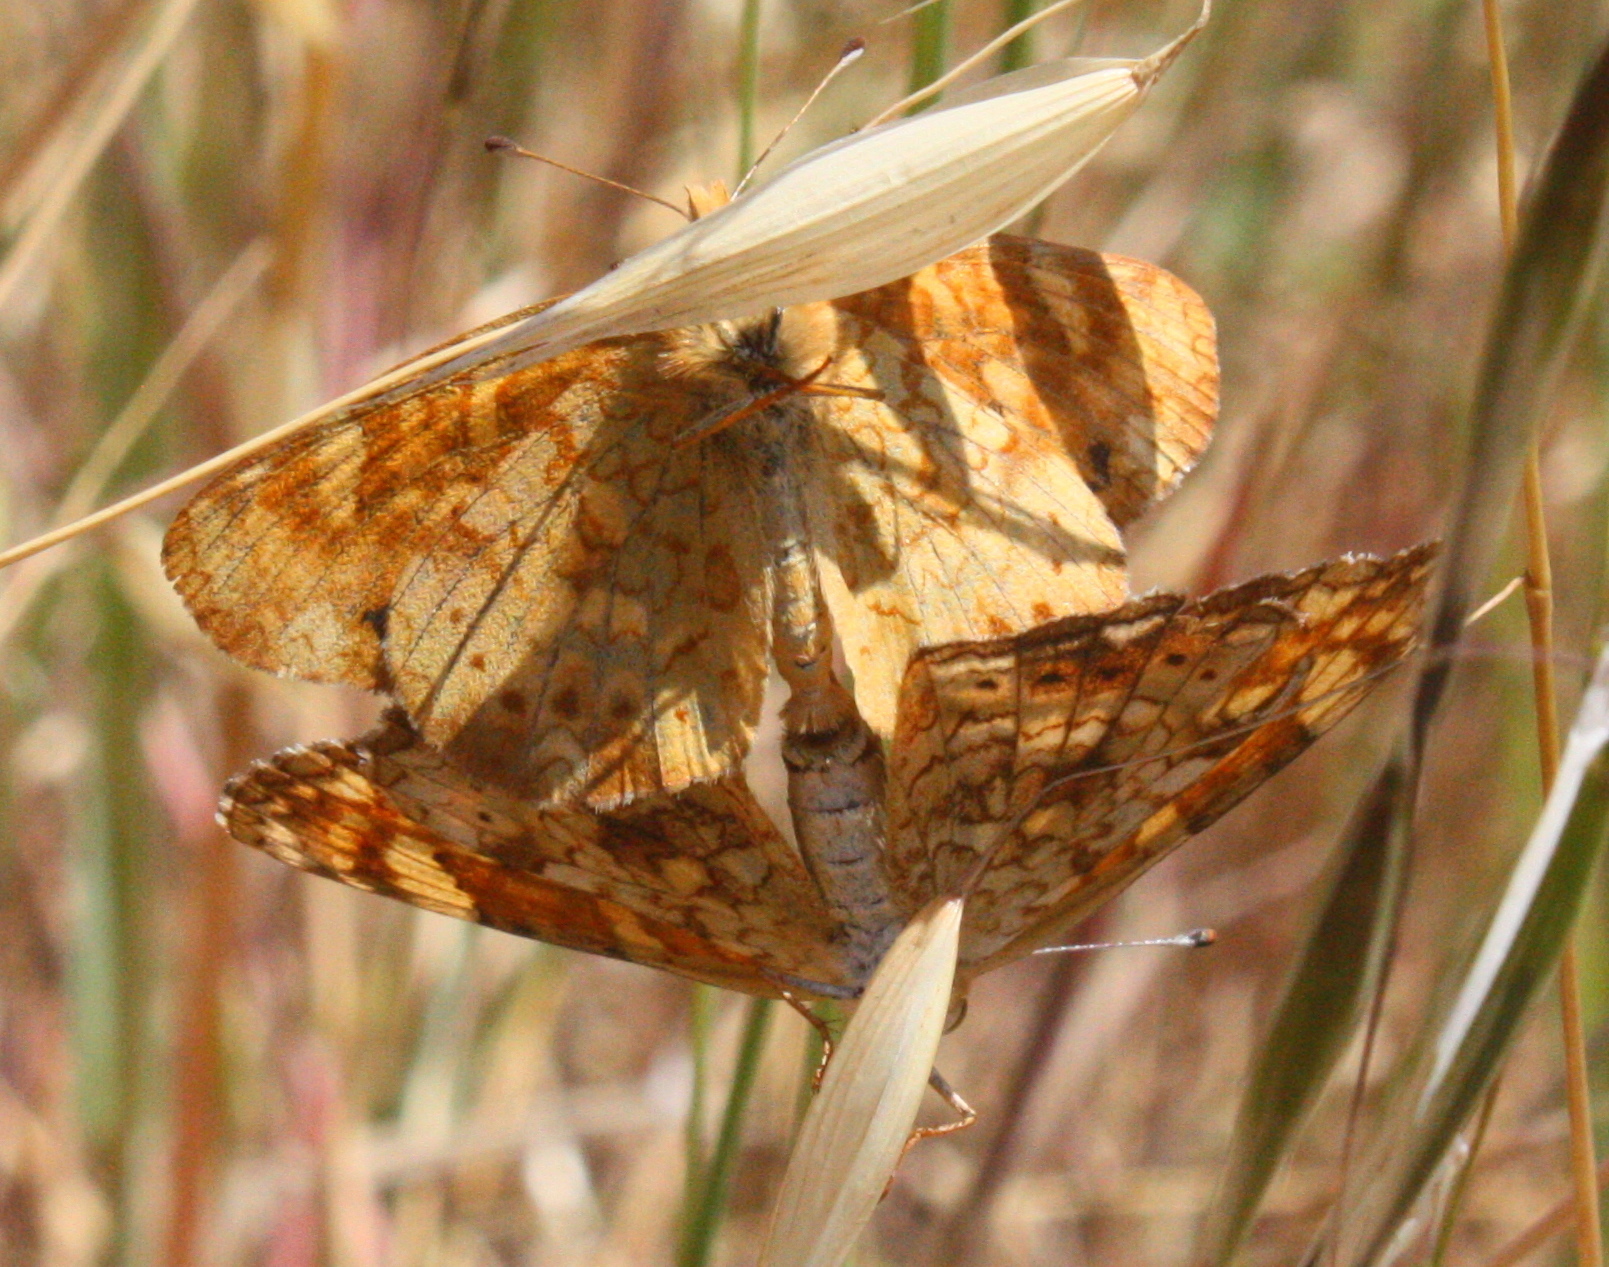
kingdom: Animalia
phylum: Arthropoda
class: Insecta
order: Lepidoptera
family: Nymphalidae
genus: Phyciodes
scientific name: Phyciodes tharos
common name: Pearl crescent
